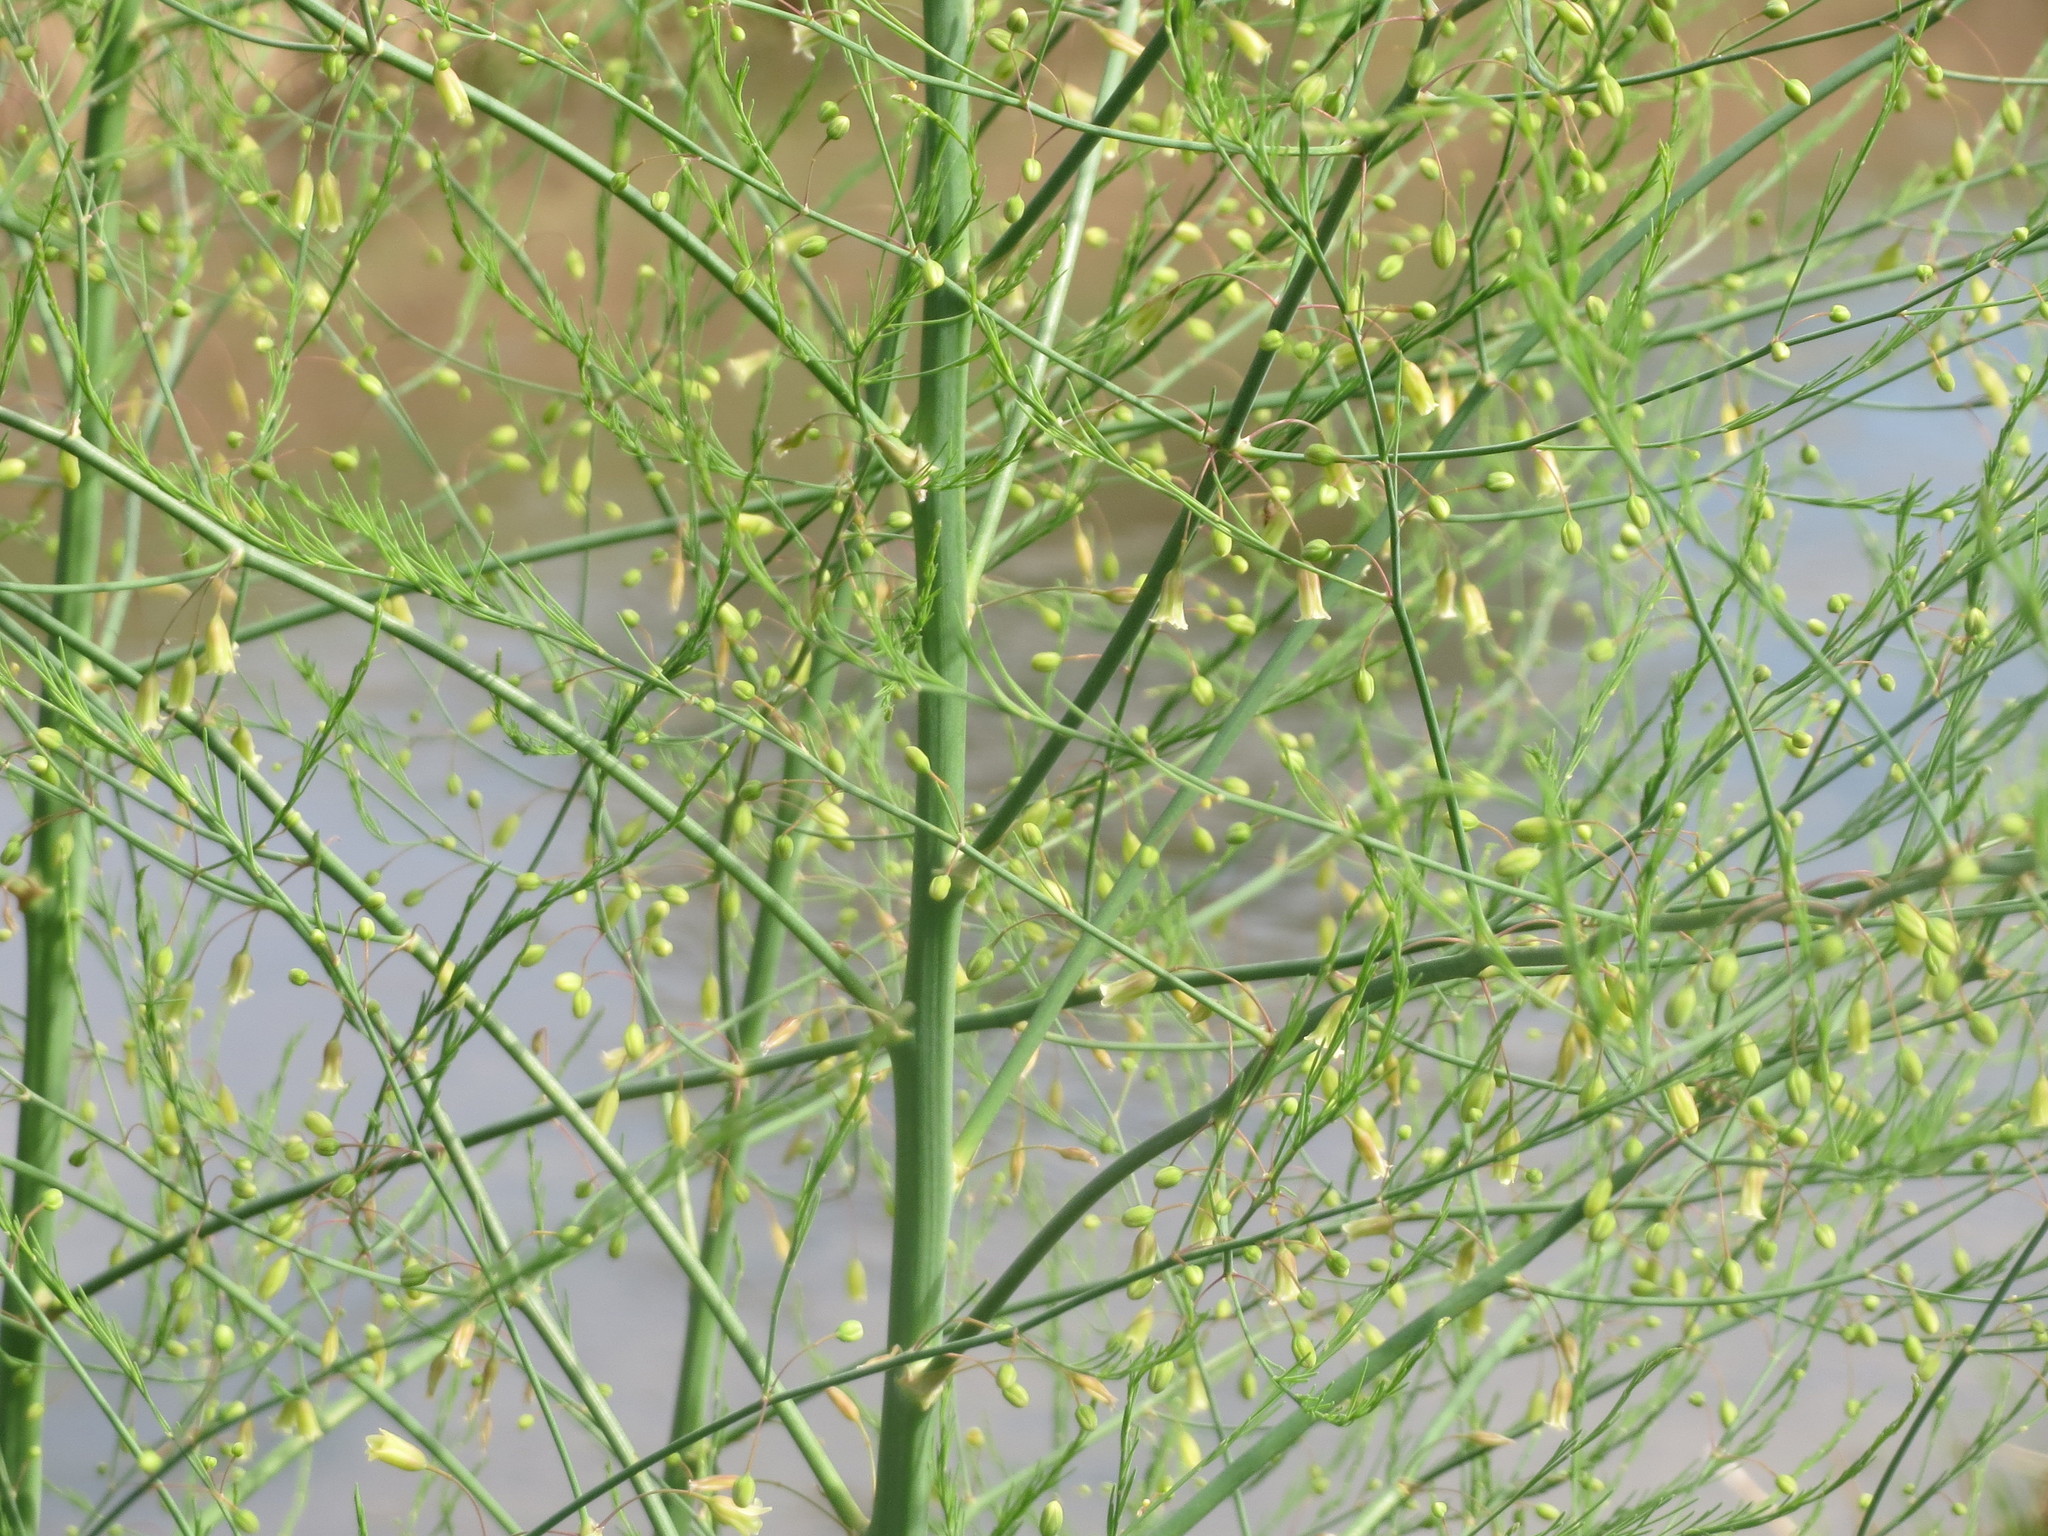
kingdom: Plantae
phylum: Tracheophyta
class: Liliopsida
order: Asparagales
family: Asparagaceae
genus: Asparagus
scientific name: Asparagus officinalis
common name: Garden asparagus
